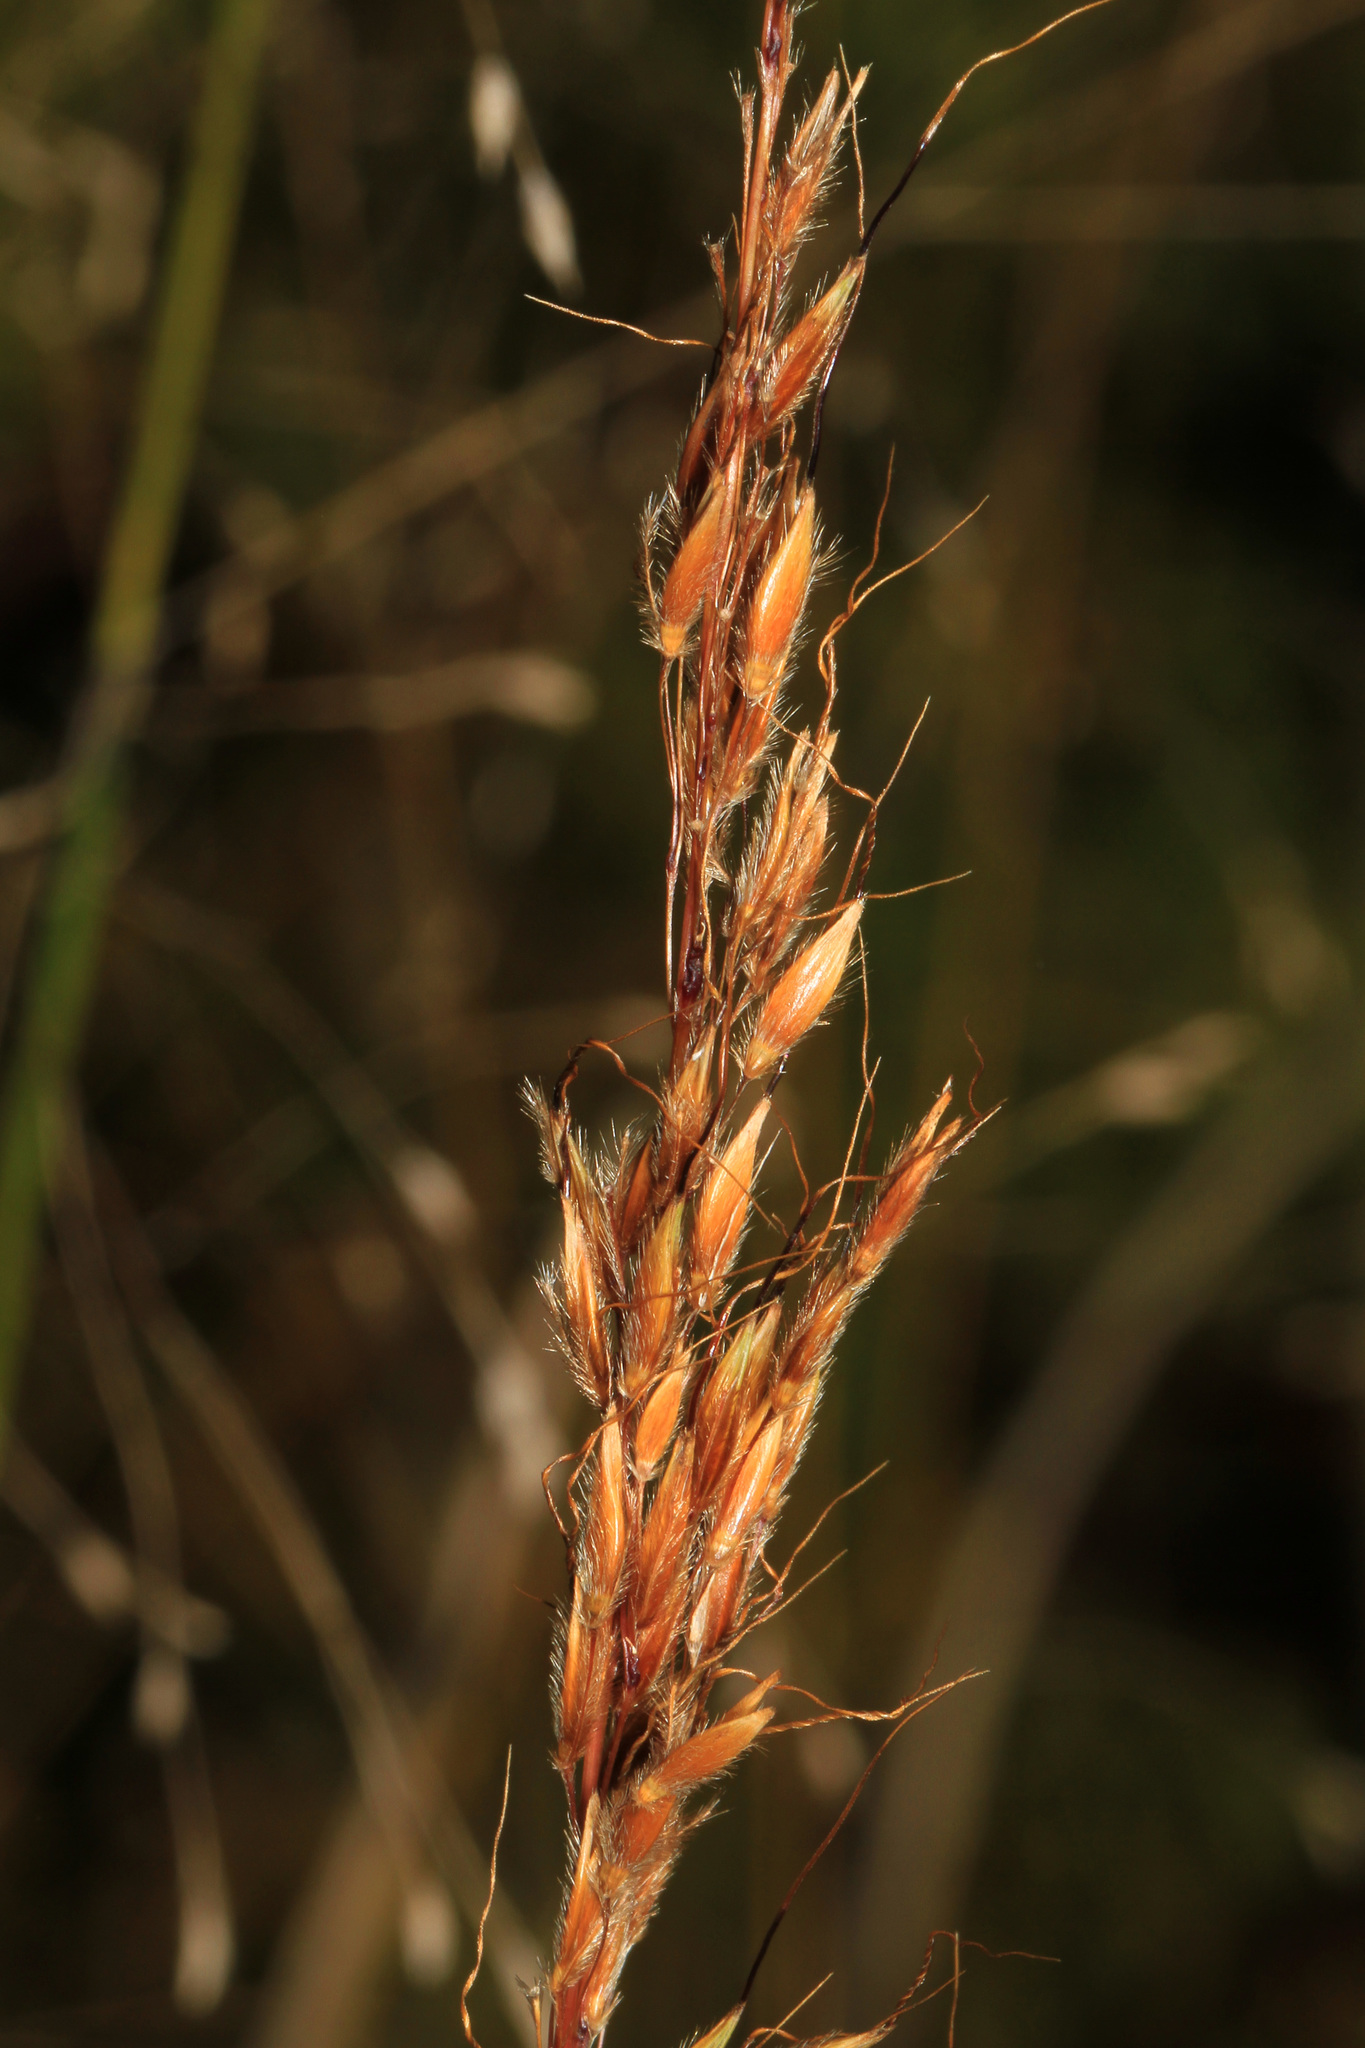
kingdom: Plantae
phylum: Tracheophyta
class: Liliopsida
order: Poales
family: Poaceae
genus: Sorghastrum
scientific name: Sorghastrum nutans
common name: Indian grass
